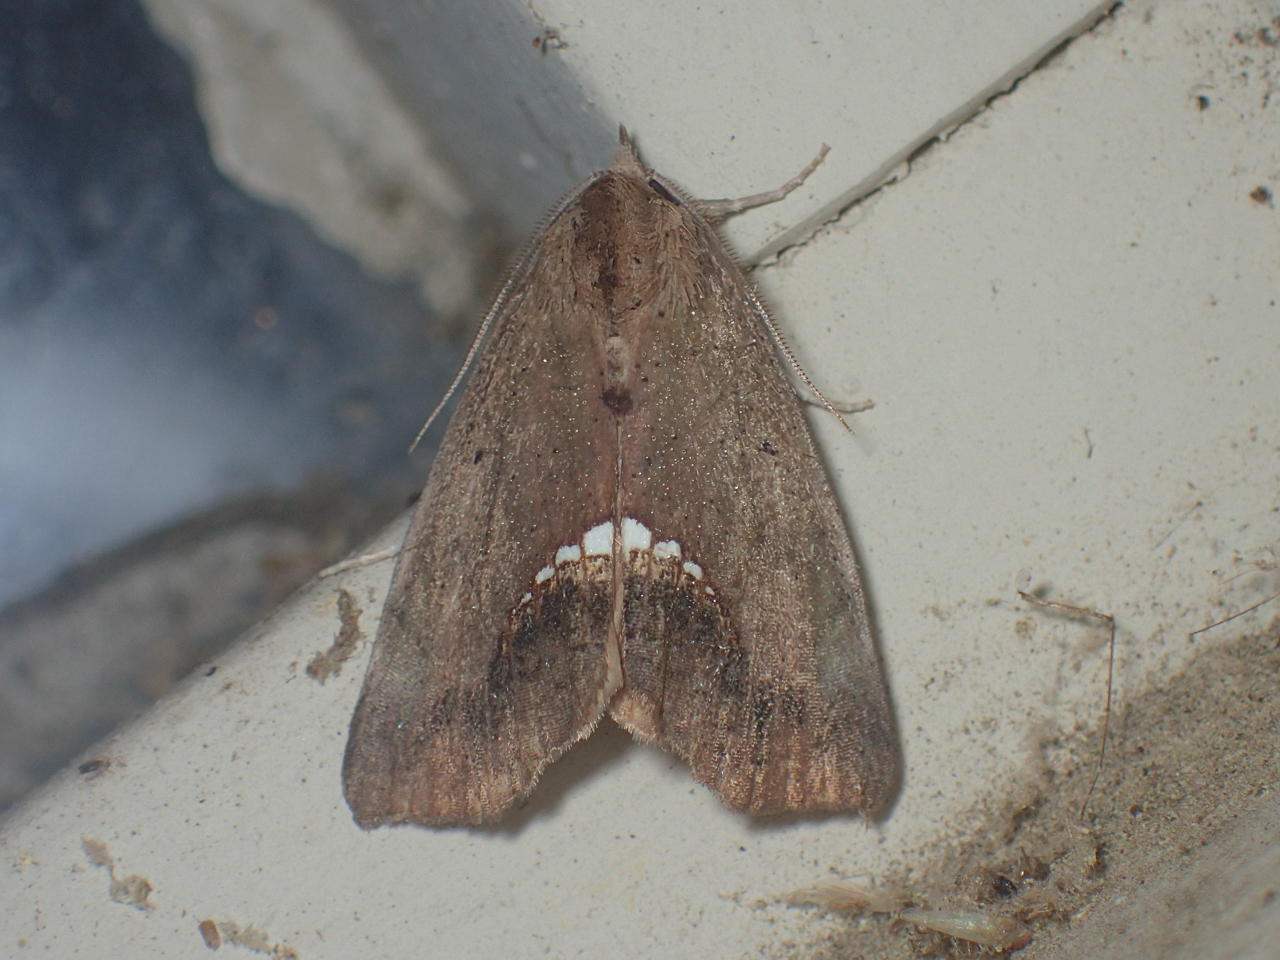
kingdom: Animalia
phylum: Arthropoda
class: Insecta
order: Lepidoptera
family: Erebidae
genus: Hypsoropha
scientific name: Hypsoropha hormos
